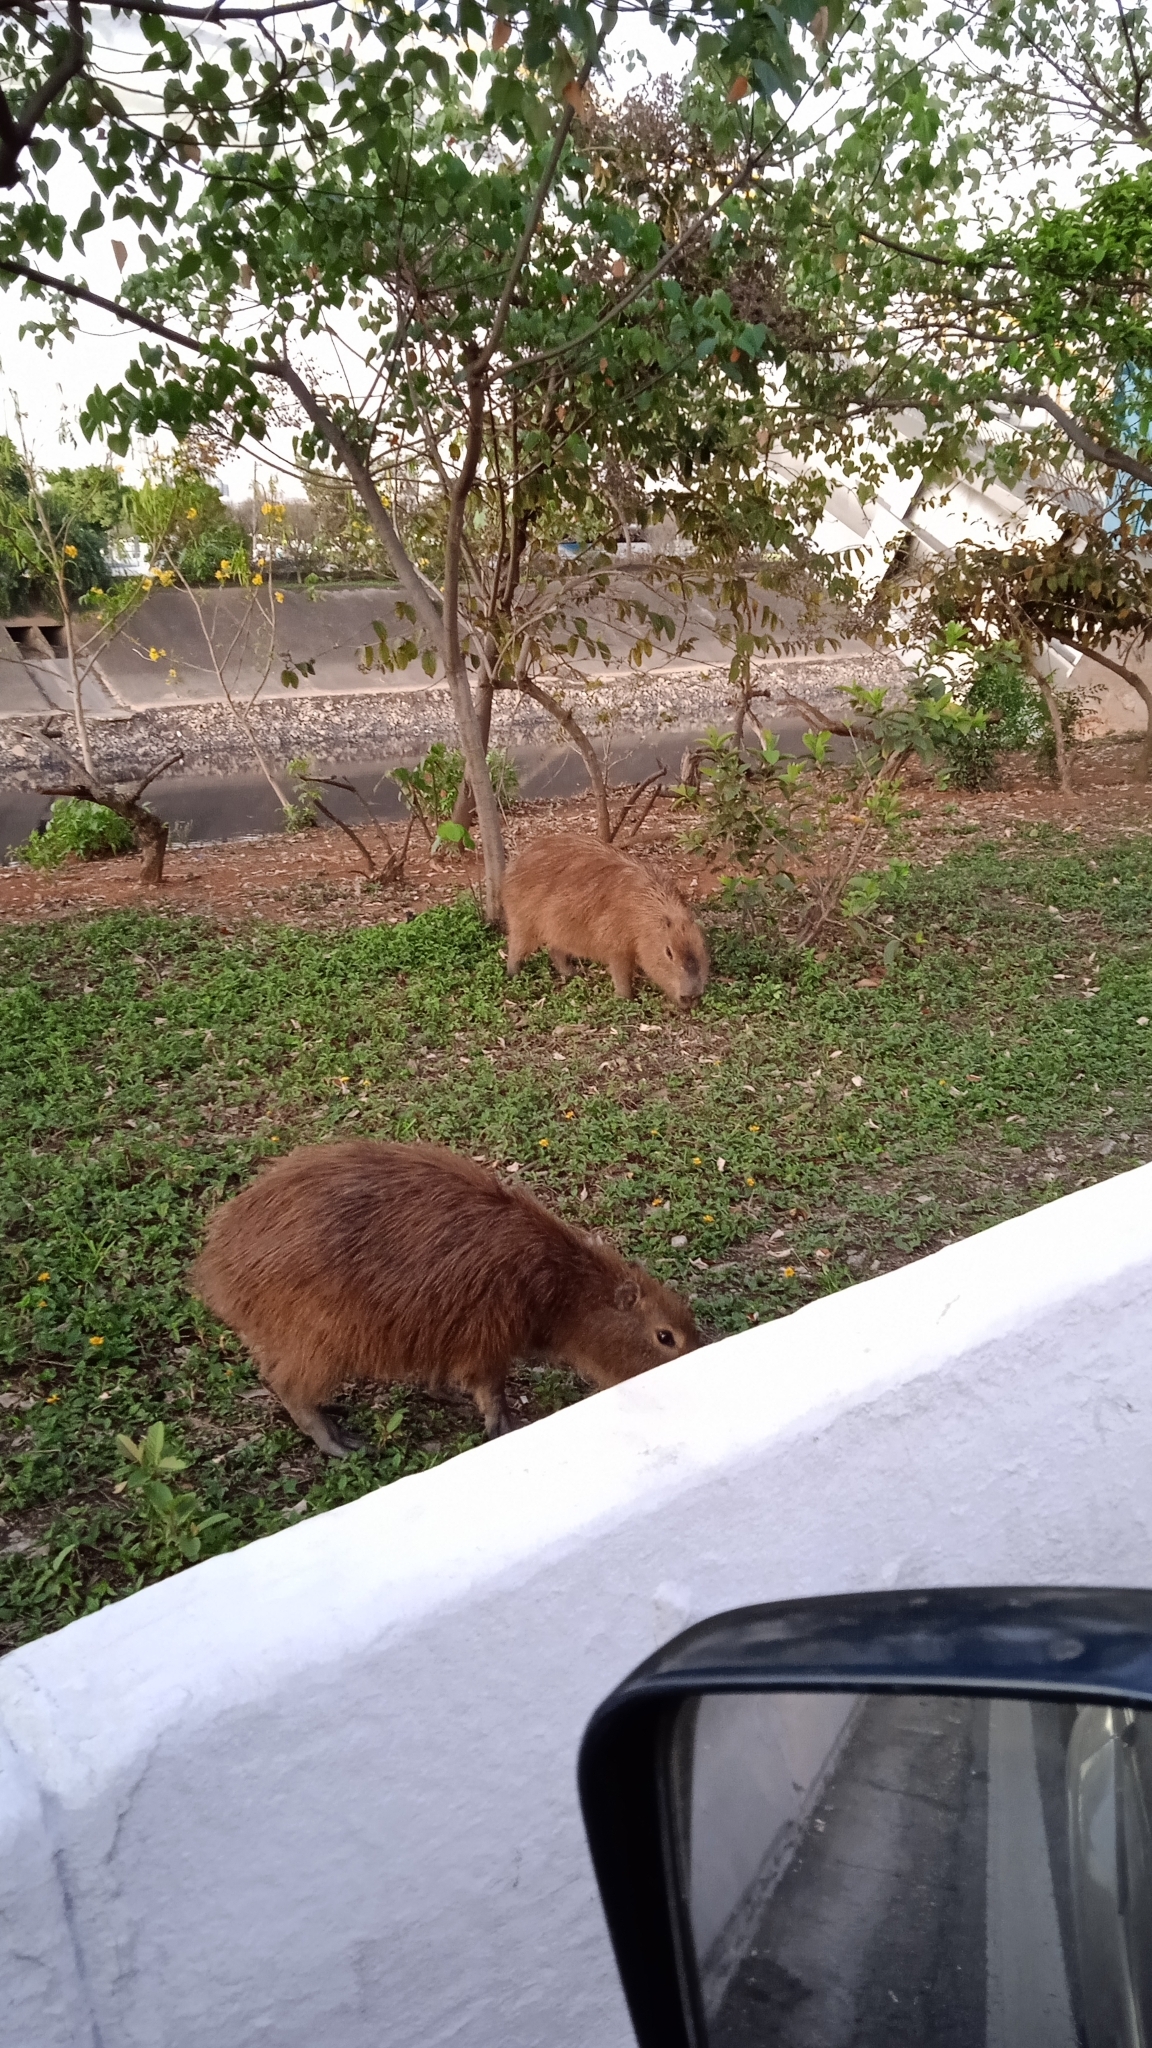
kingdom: Animalia
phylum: Chordata
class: Mammalia
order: Rodentia
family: Caviidae
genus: Hydrochoerus
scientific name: Hydrochoerus hydrochaeris
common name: Capybara
